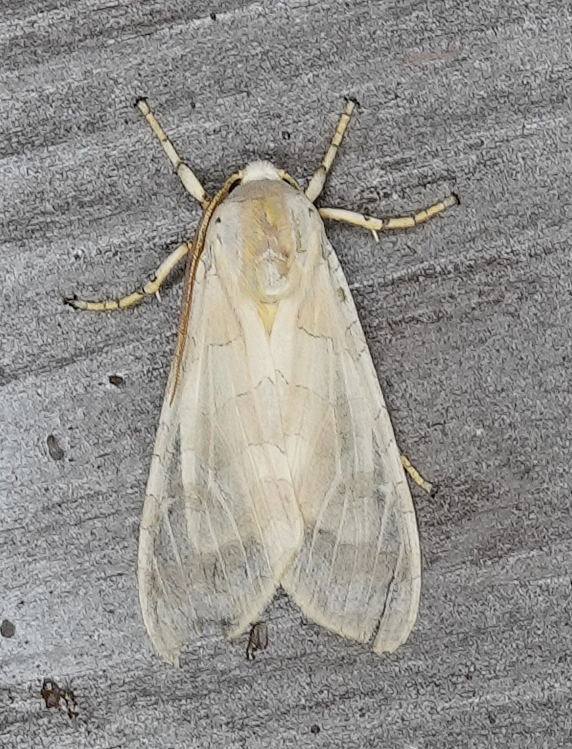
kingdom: Animalia
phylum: Arthropoda
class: Insecta
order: Lepidoptera
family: Erebidae
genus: Halysidota
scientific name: Halysidota tessellaris
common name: Banded tussock moth
